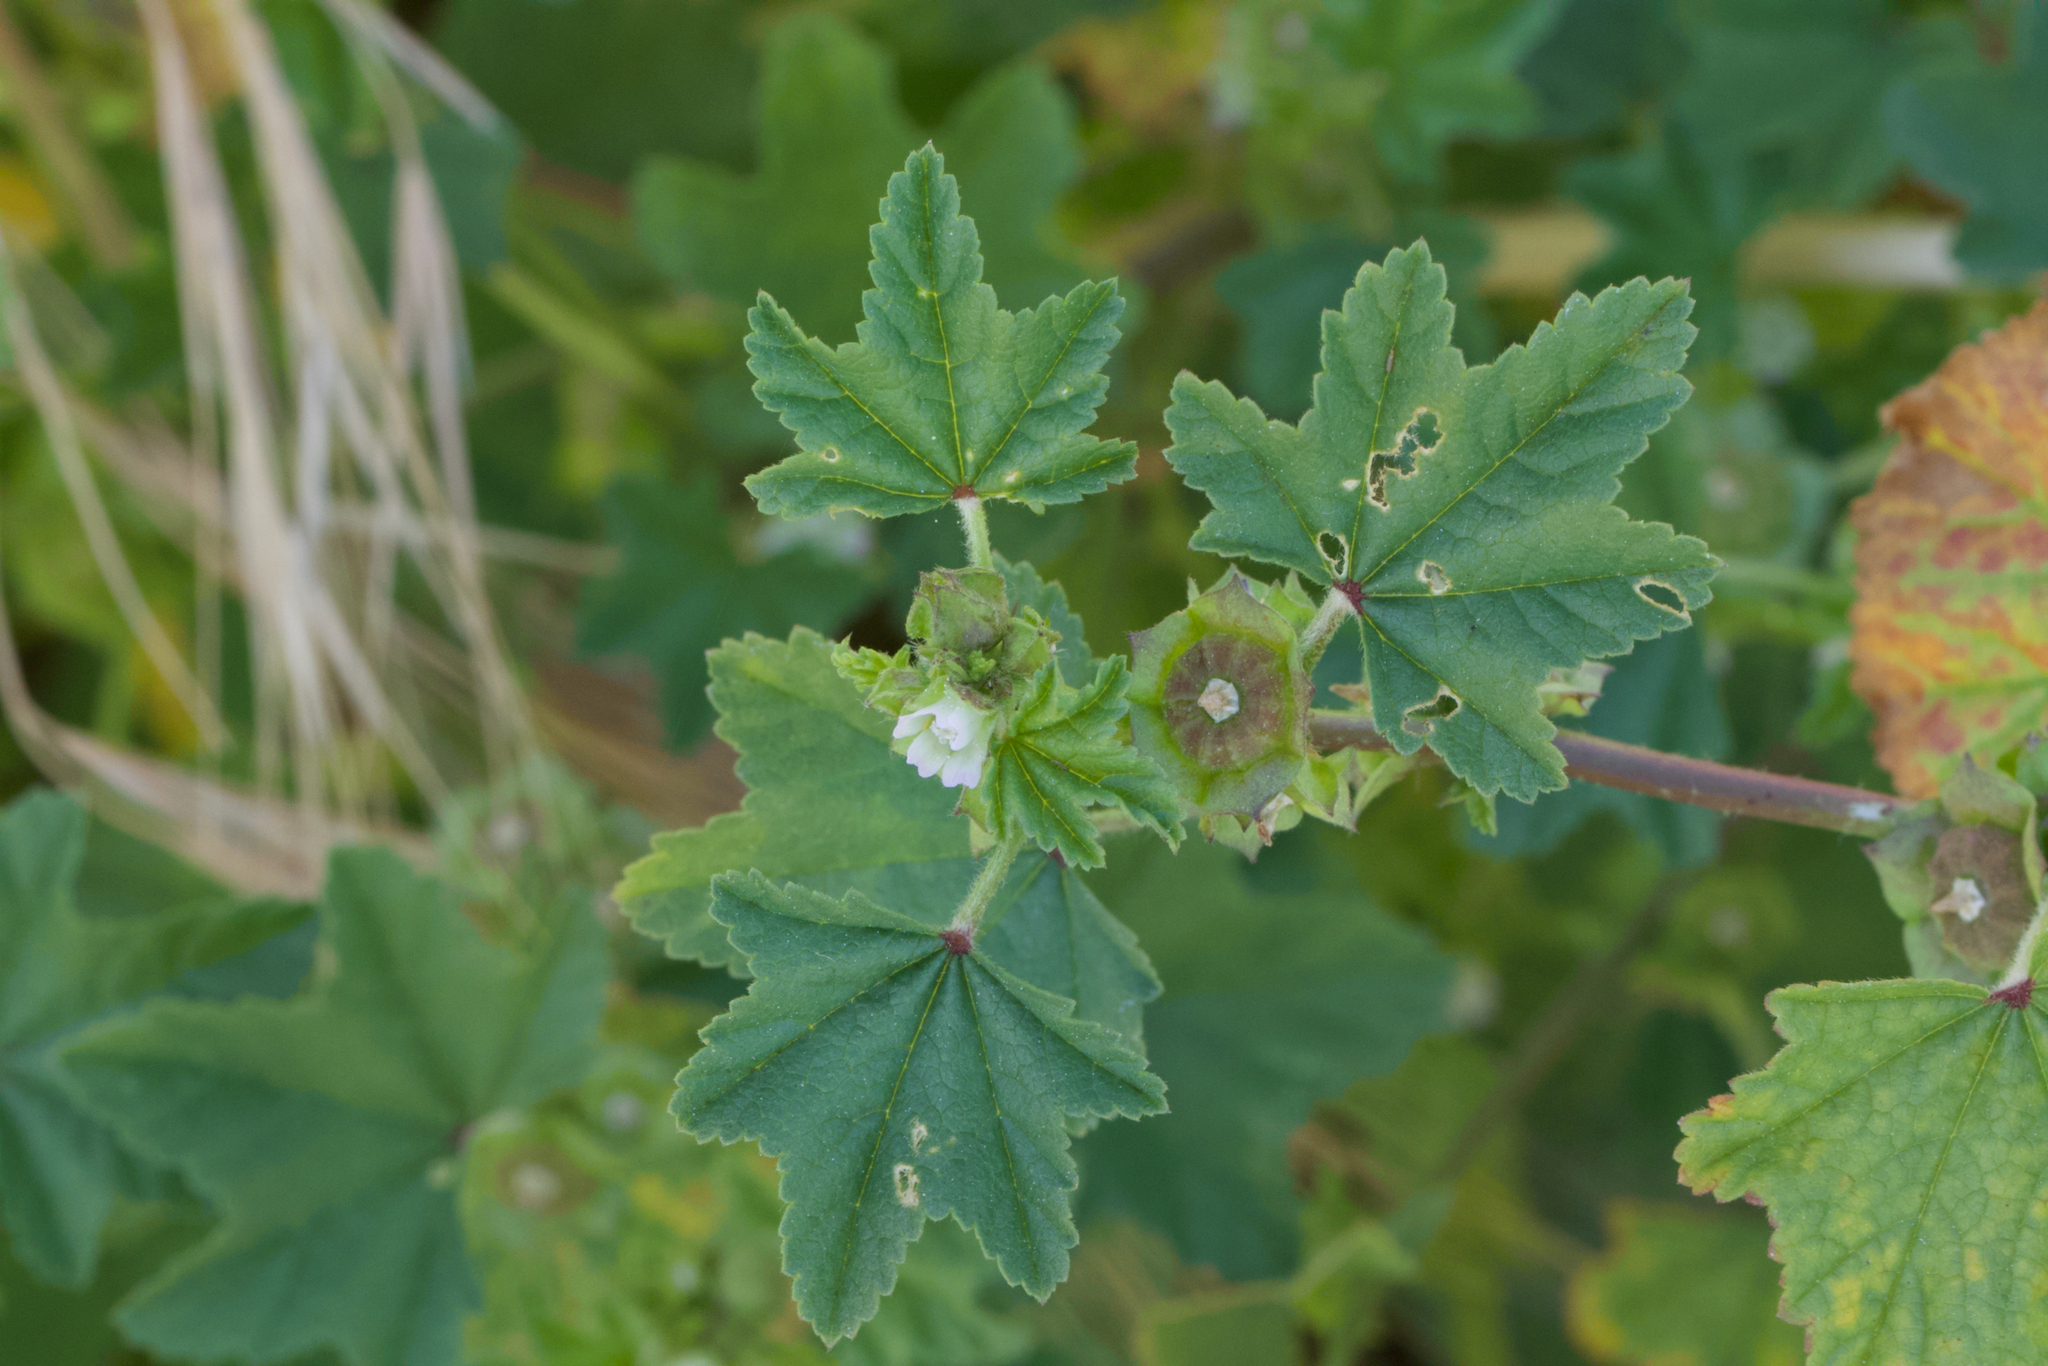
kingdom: Plantae
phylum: Tracheophyta
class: Magnoliopsida
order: Malvales
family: Malvaceae
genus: Malva
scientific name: Malva parviflora
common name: Least mallow
